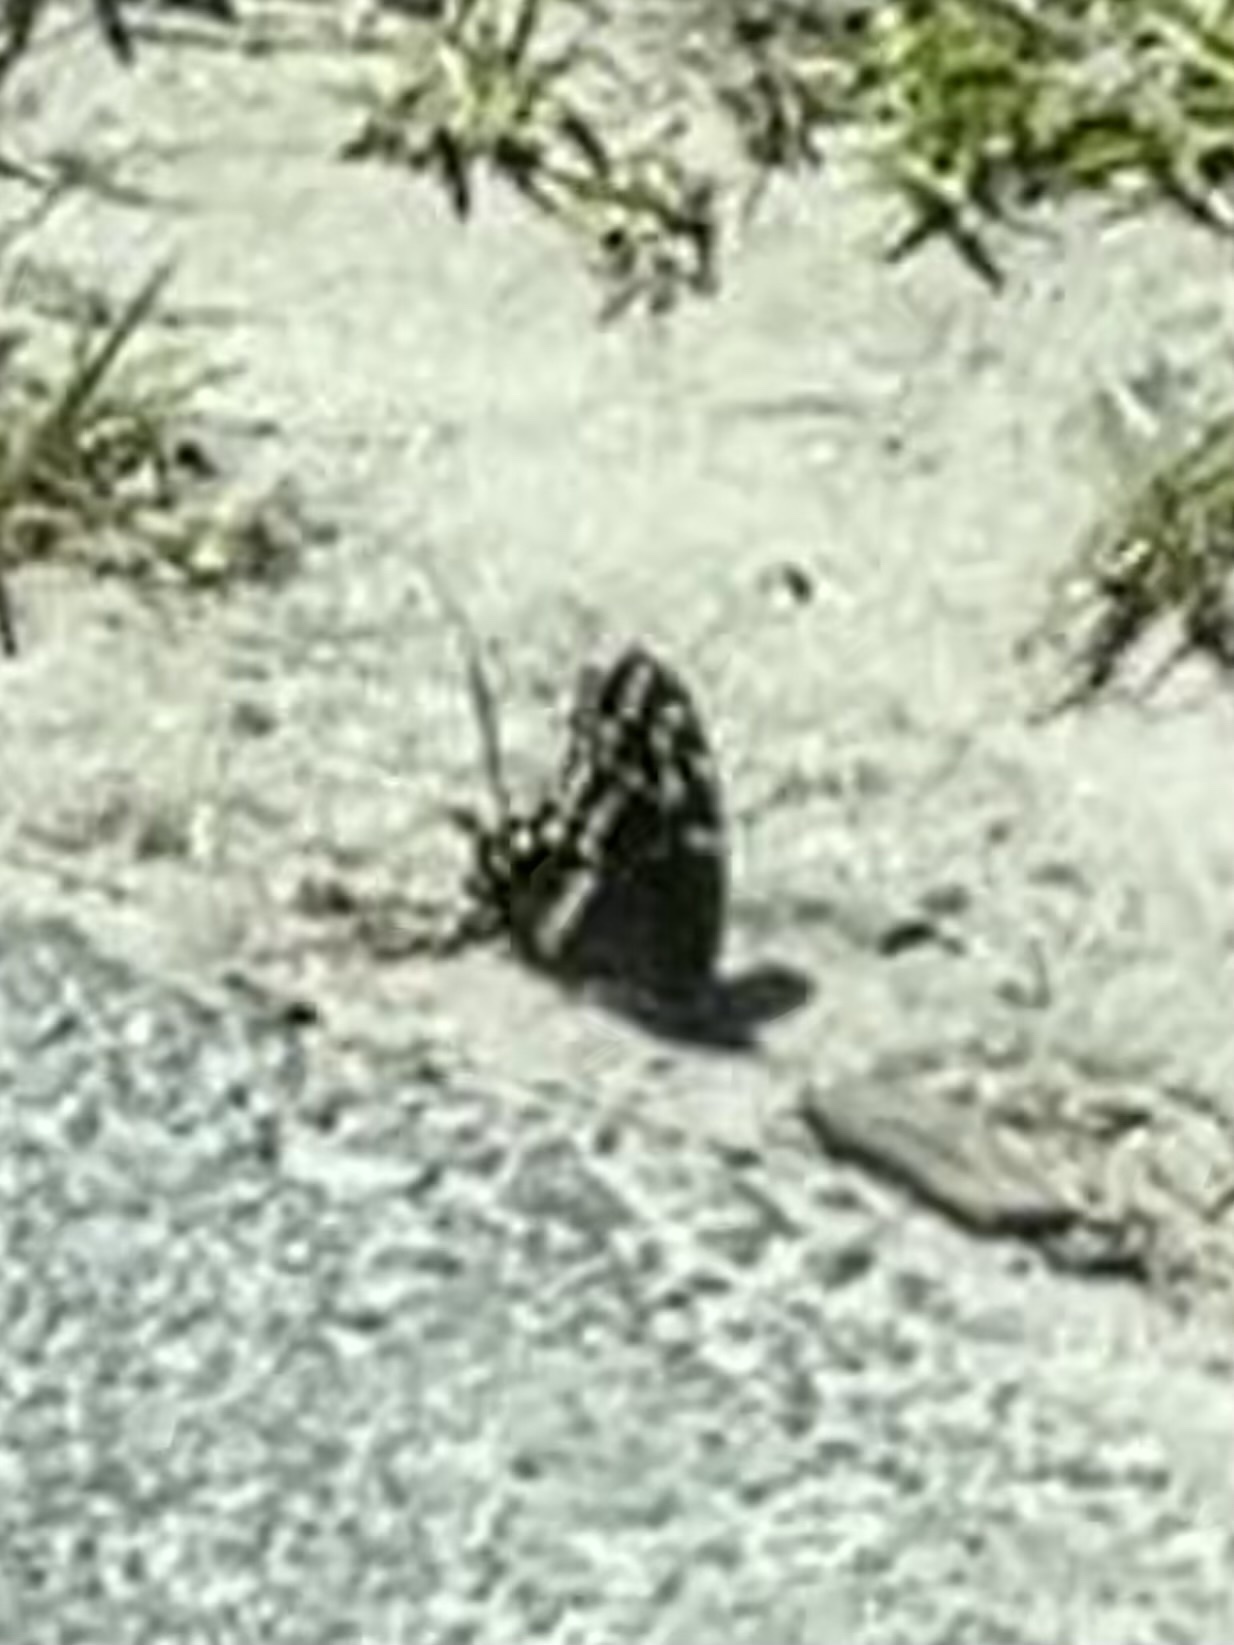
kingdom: Animalia
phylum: Arthropoda
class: Insecta
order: Lepidoptera
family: Papilionidae
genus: Papilio
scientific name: Papilio palamedes
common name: Palamedes swallowtail
